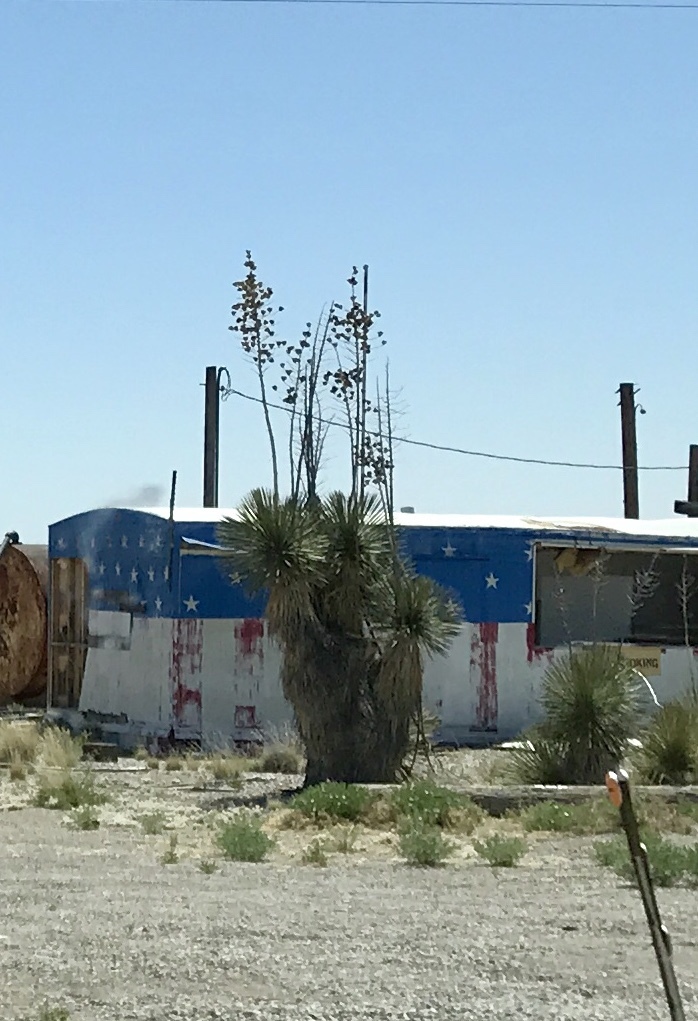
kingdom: Plantae
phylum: Tracheophyta
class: Liliopsida
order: Asparagales
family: Asparagaceae
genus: Yucca
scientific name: Yucca elata
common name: Palmella
